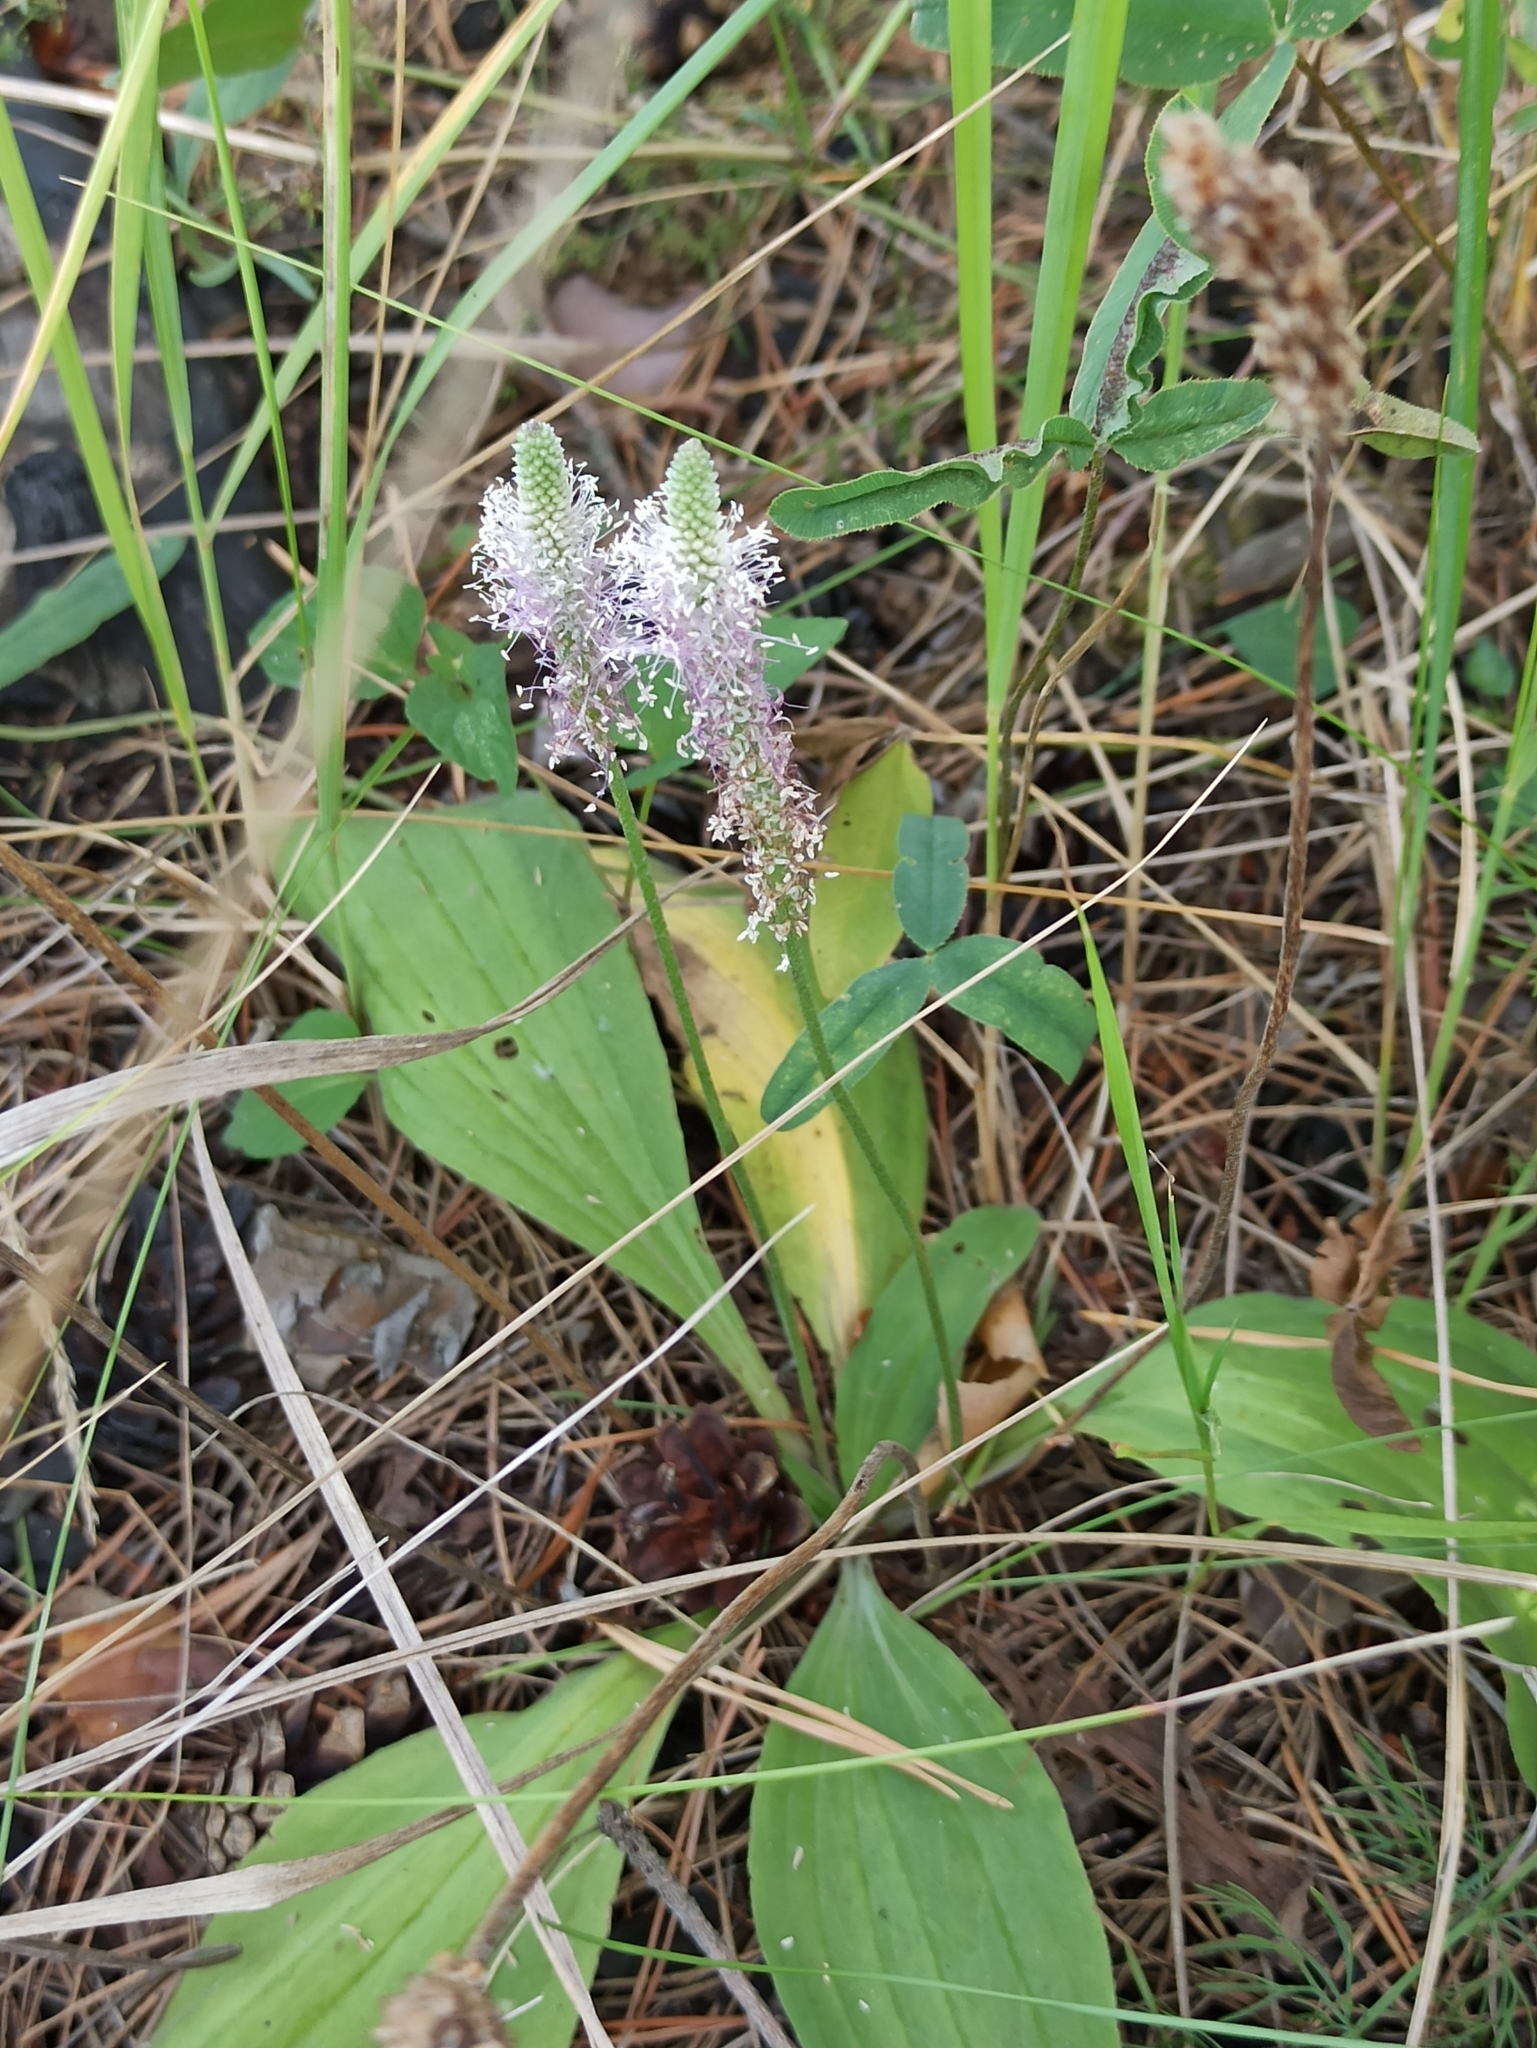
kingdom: Plantae
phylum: Tracheophyta
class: Magnoliopsida
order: Lamiales
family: Plantaginaceae
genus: Plantago
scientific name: Plantago media
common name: Hoary plantain
